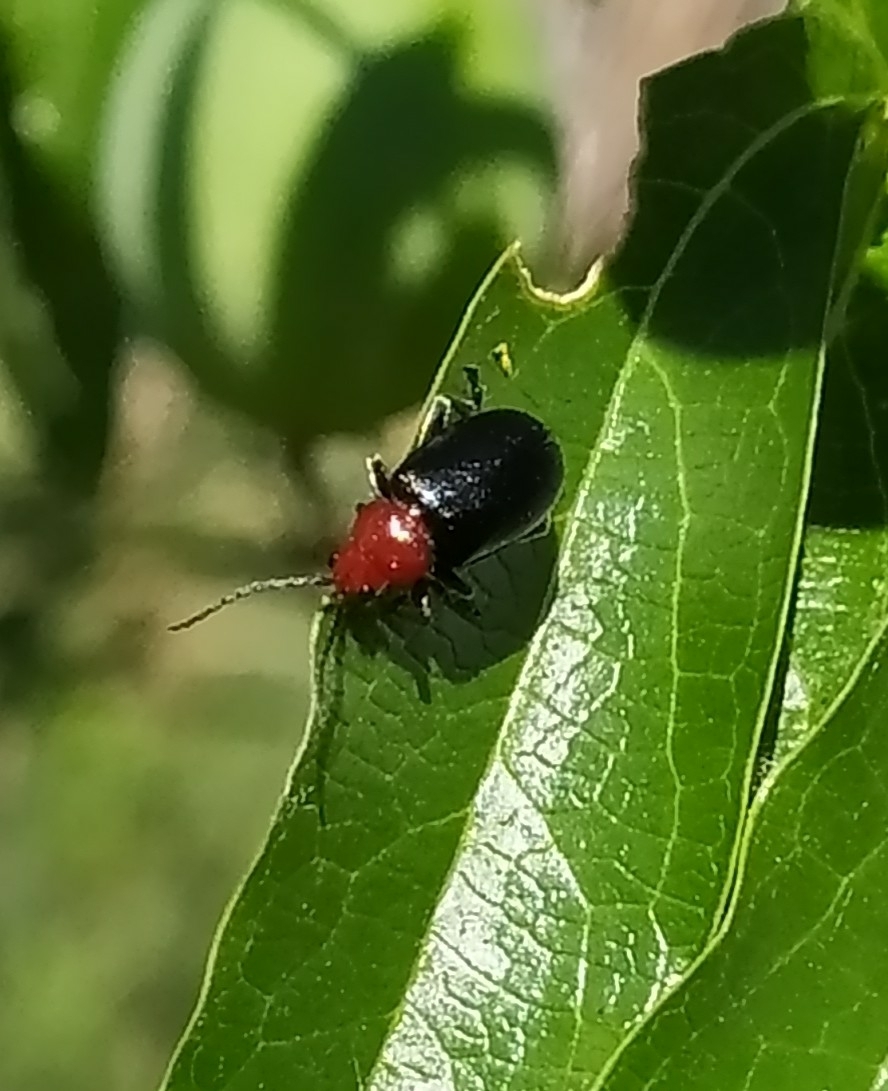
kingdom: Animalia
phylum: Arthropoda
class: Insecta
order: Coleoptera
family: Chrysomelidae
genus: Cacoscelis
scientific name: Cacoscelis
